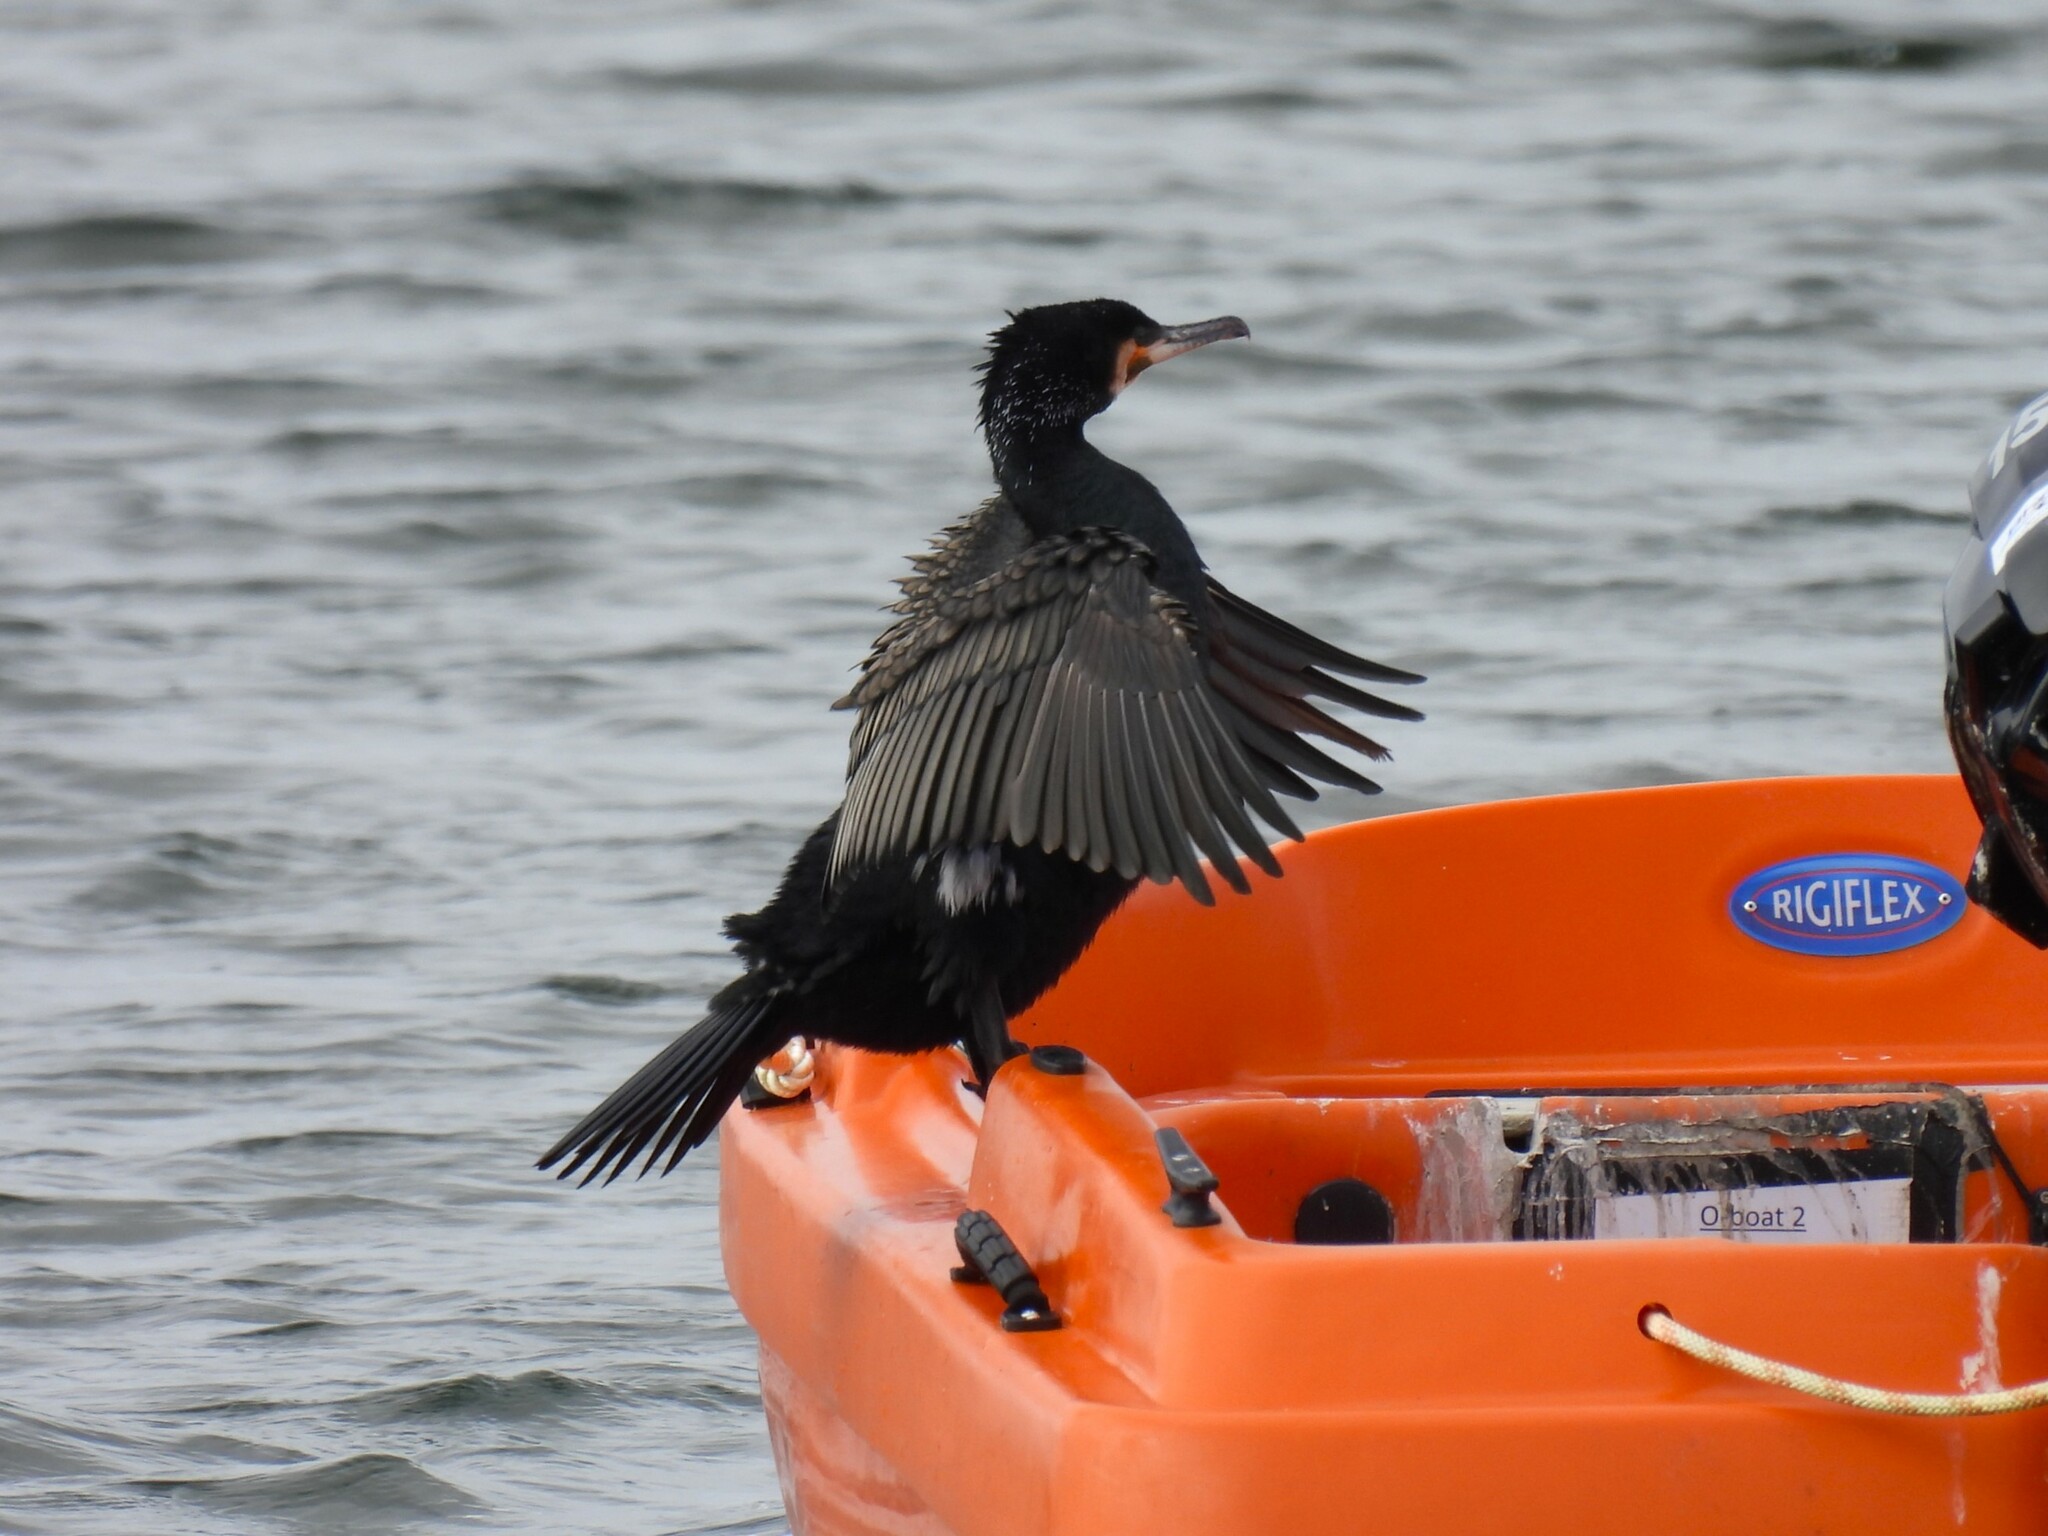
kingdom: Animalia
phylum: Chordata
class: Aves
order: Suliformes
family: Phalacrocoracidae
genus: Phalacrocorax
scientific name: Phalacrocorax carbo
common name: Great cormorant
